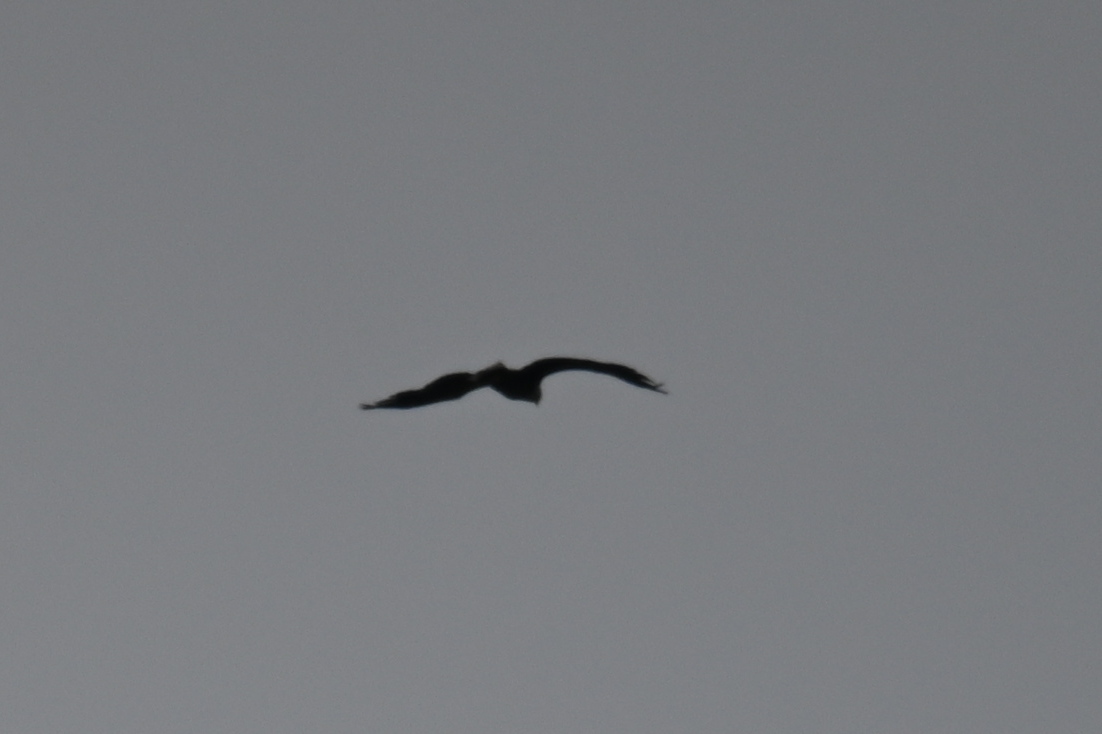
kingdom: Animalia
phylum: Chordata
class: Aves
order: Accipitriformes
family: Accipitridae
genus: Haliaeetus
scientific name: Haliaeetus albicilla
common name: White-tailed eagle
